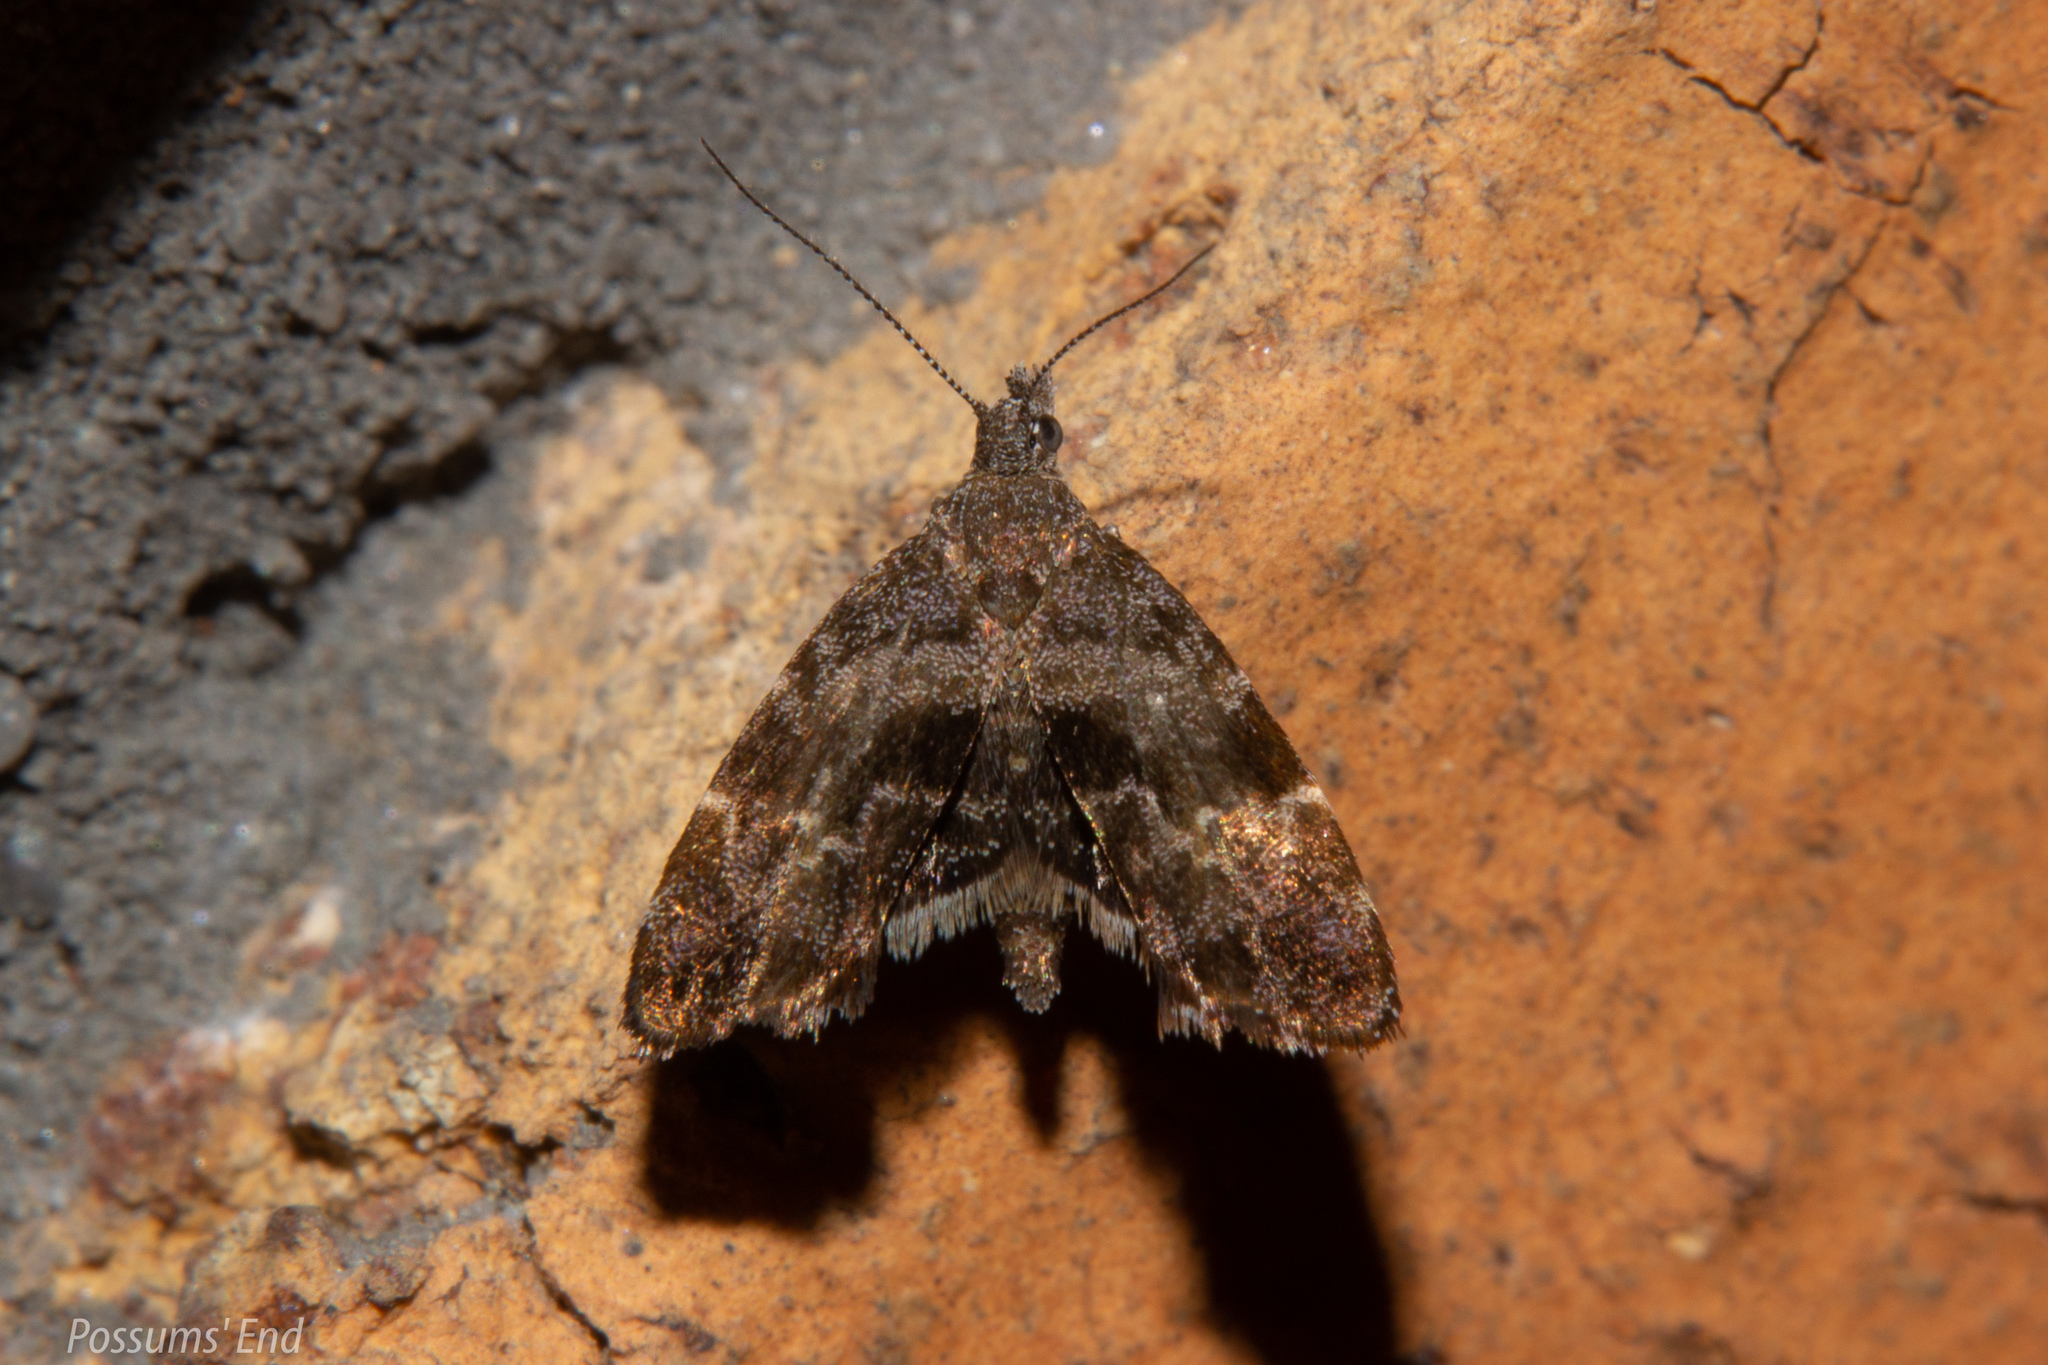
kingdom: Animalia
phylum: Arthropoda
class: Insecta
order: Lepidoptera
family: Choreutidae
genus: Asterivora
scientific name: Asterivora combinatana
